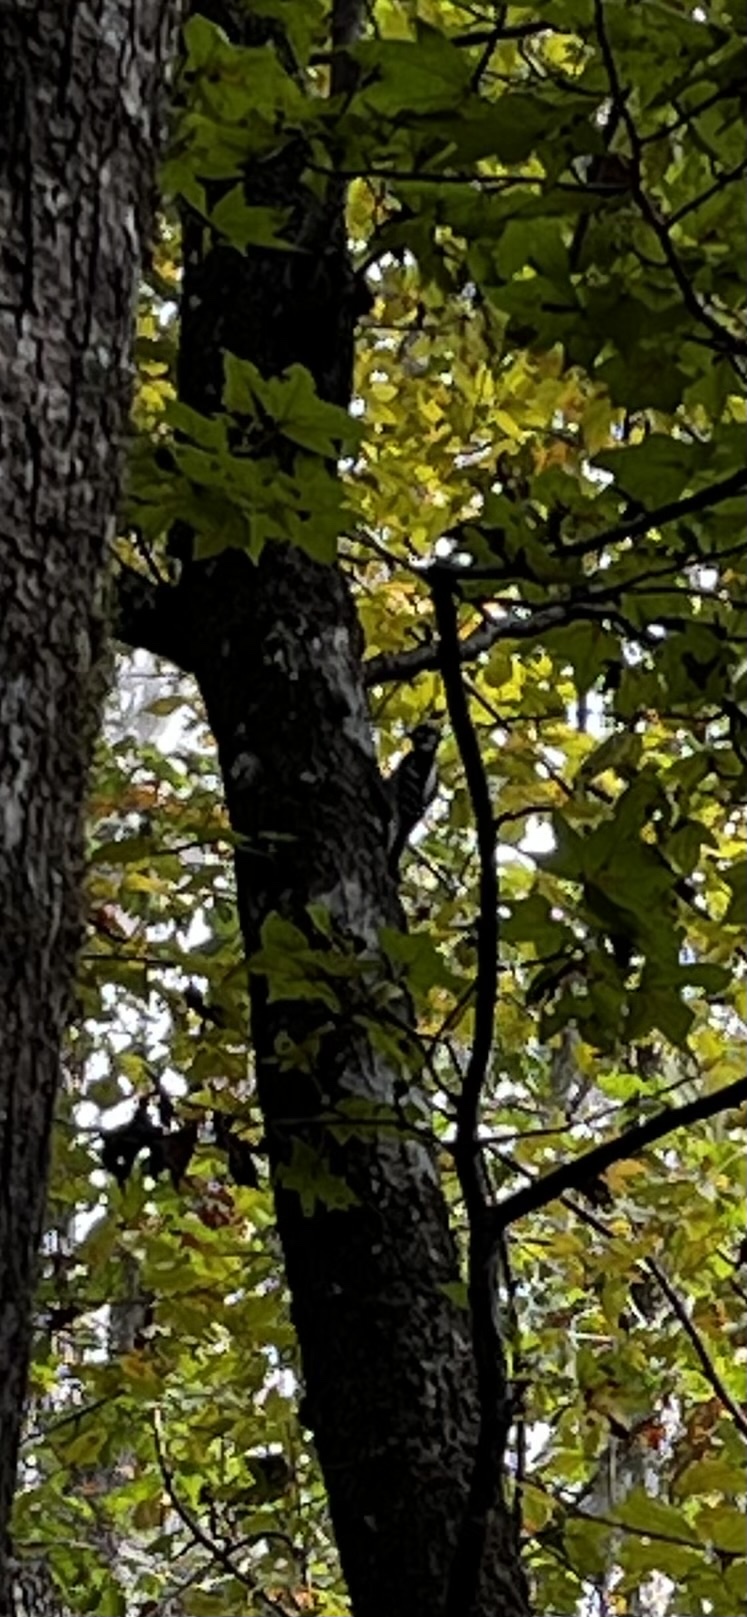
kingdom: Animalia
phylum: Chordata
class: Aves
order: Piciformes
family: Picidae
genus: Dryobates
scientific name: Dryobates pubescens
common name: Downy woodpecker
